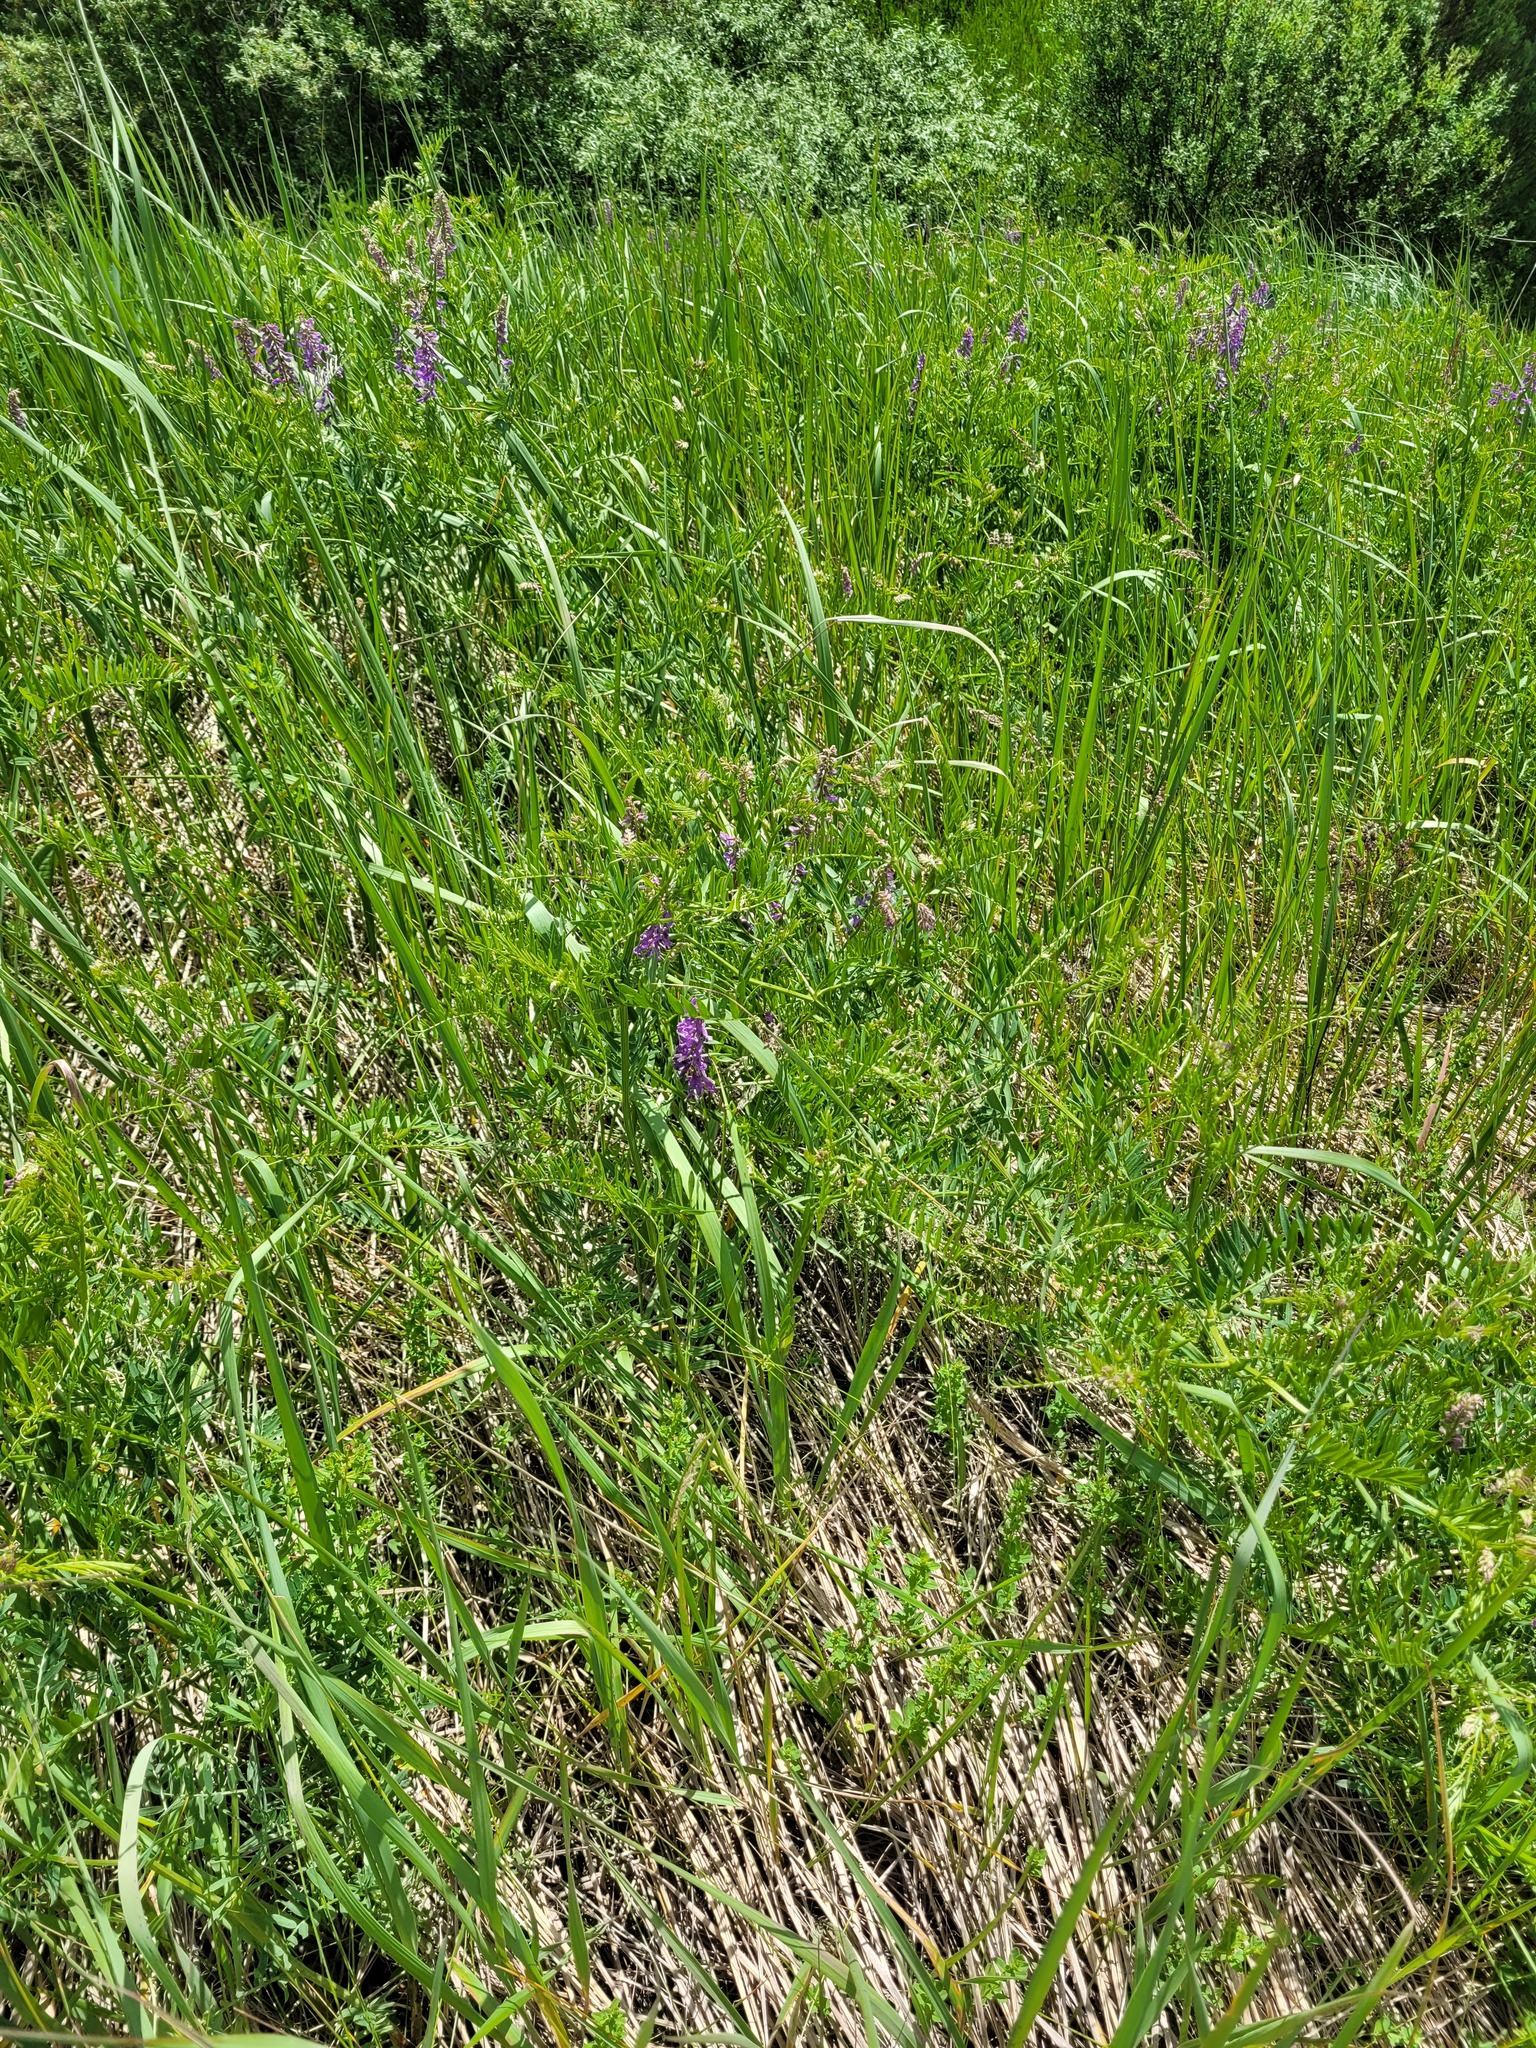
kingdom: Plantae
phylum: Tracheophyta
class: Magnoliopsida
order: Fabales
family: Fabaceae
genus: Vicia
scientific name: Vicia tenuifolia
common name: Fine-leaved vetch
